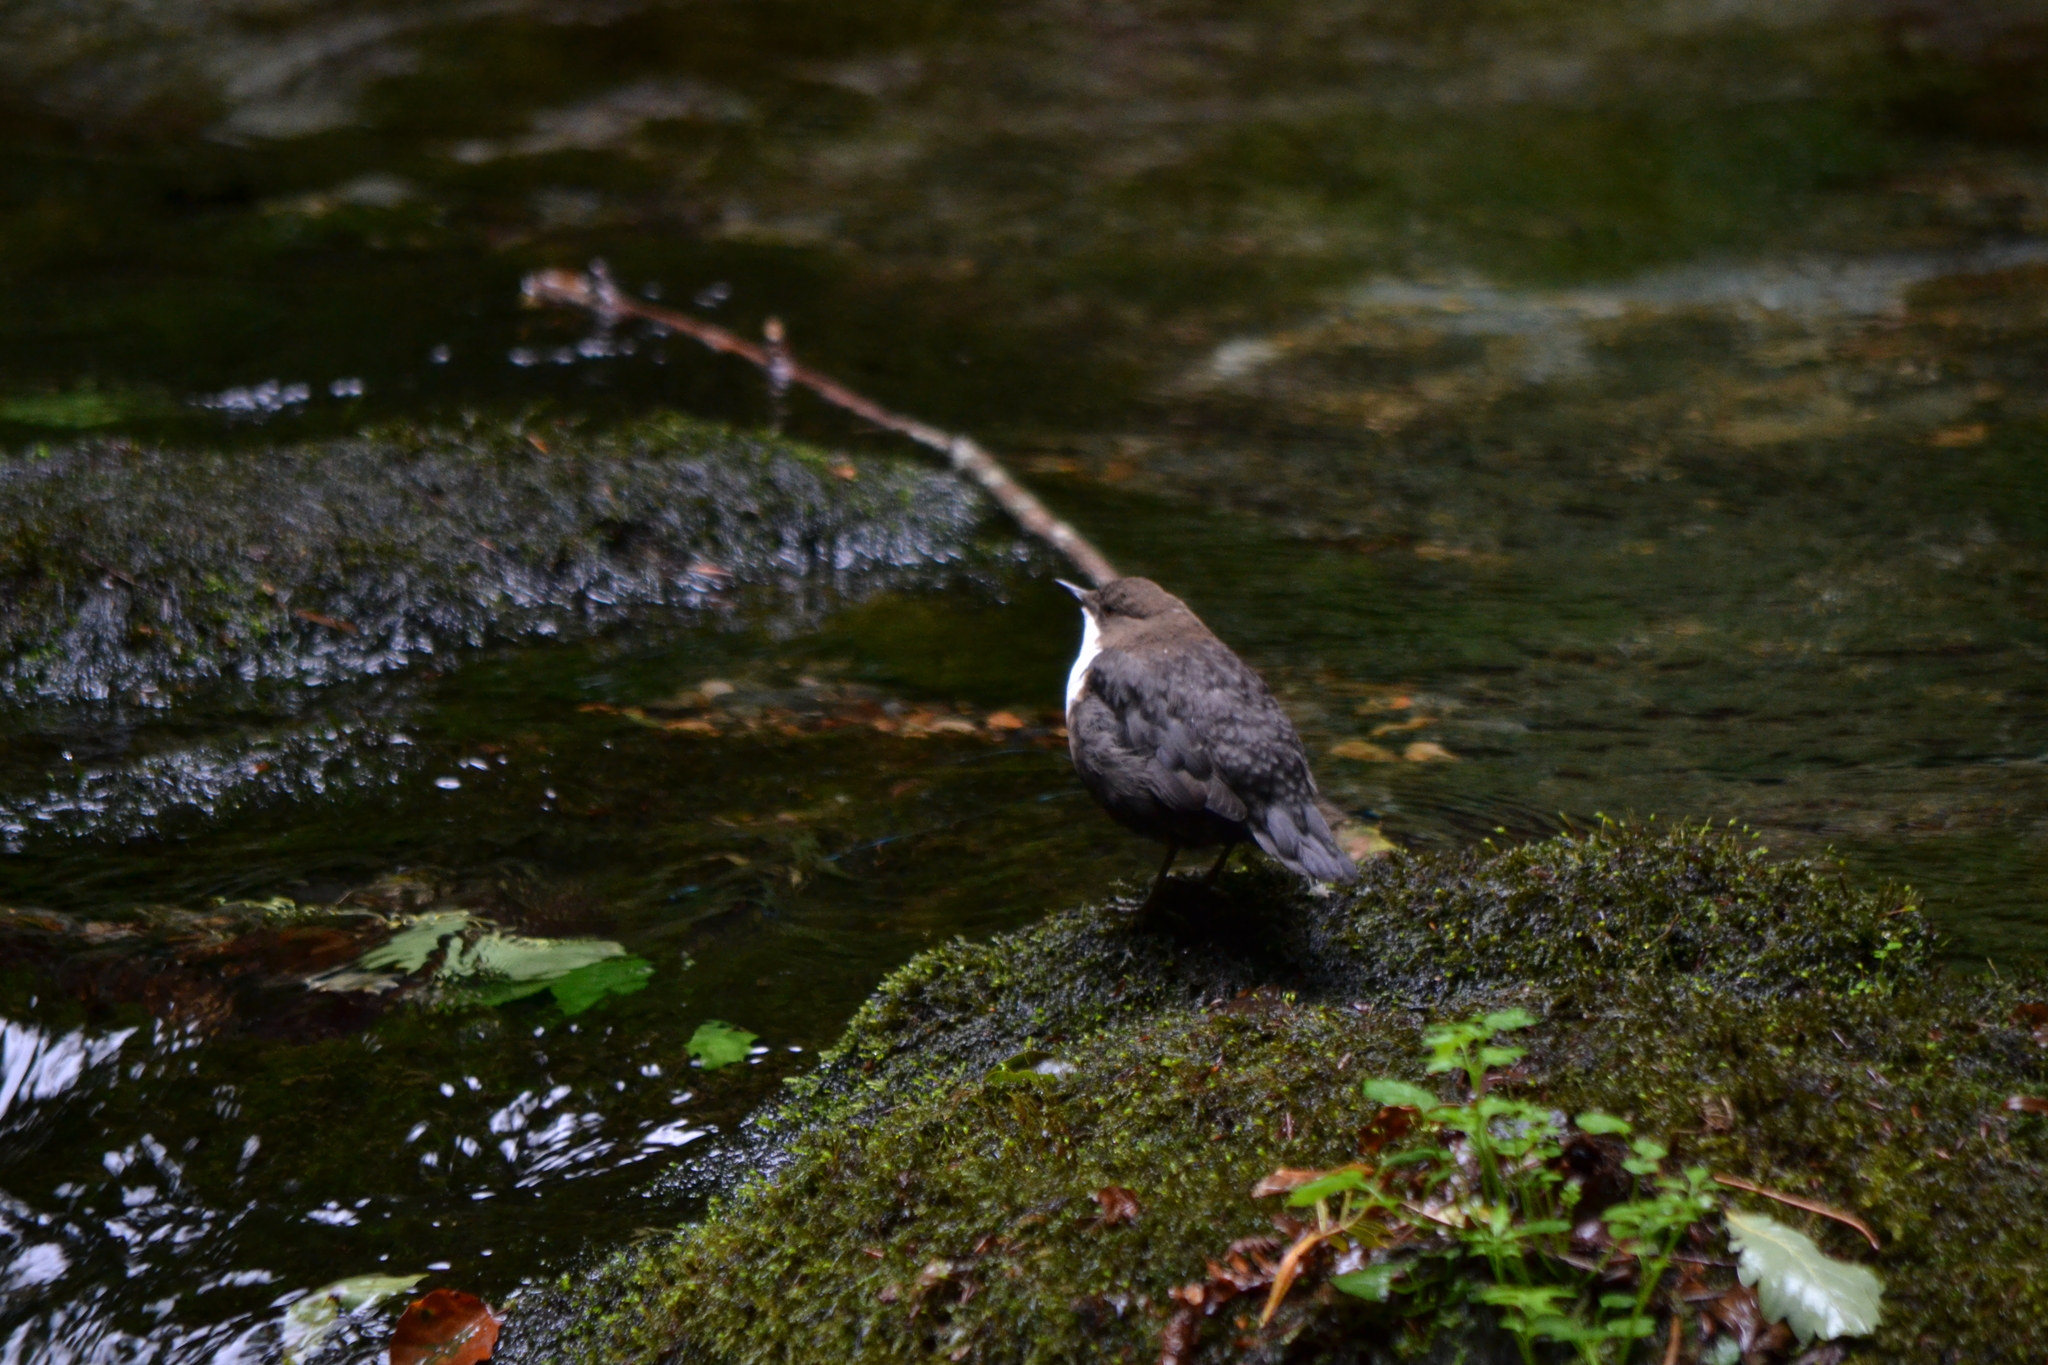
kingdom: Animalia
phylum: Chordata
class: Aves
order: Passeriformes
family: Cinclidae
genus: Cinclus
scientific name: Cinclus cinclus
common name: White-throated dipper
